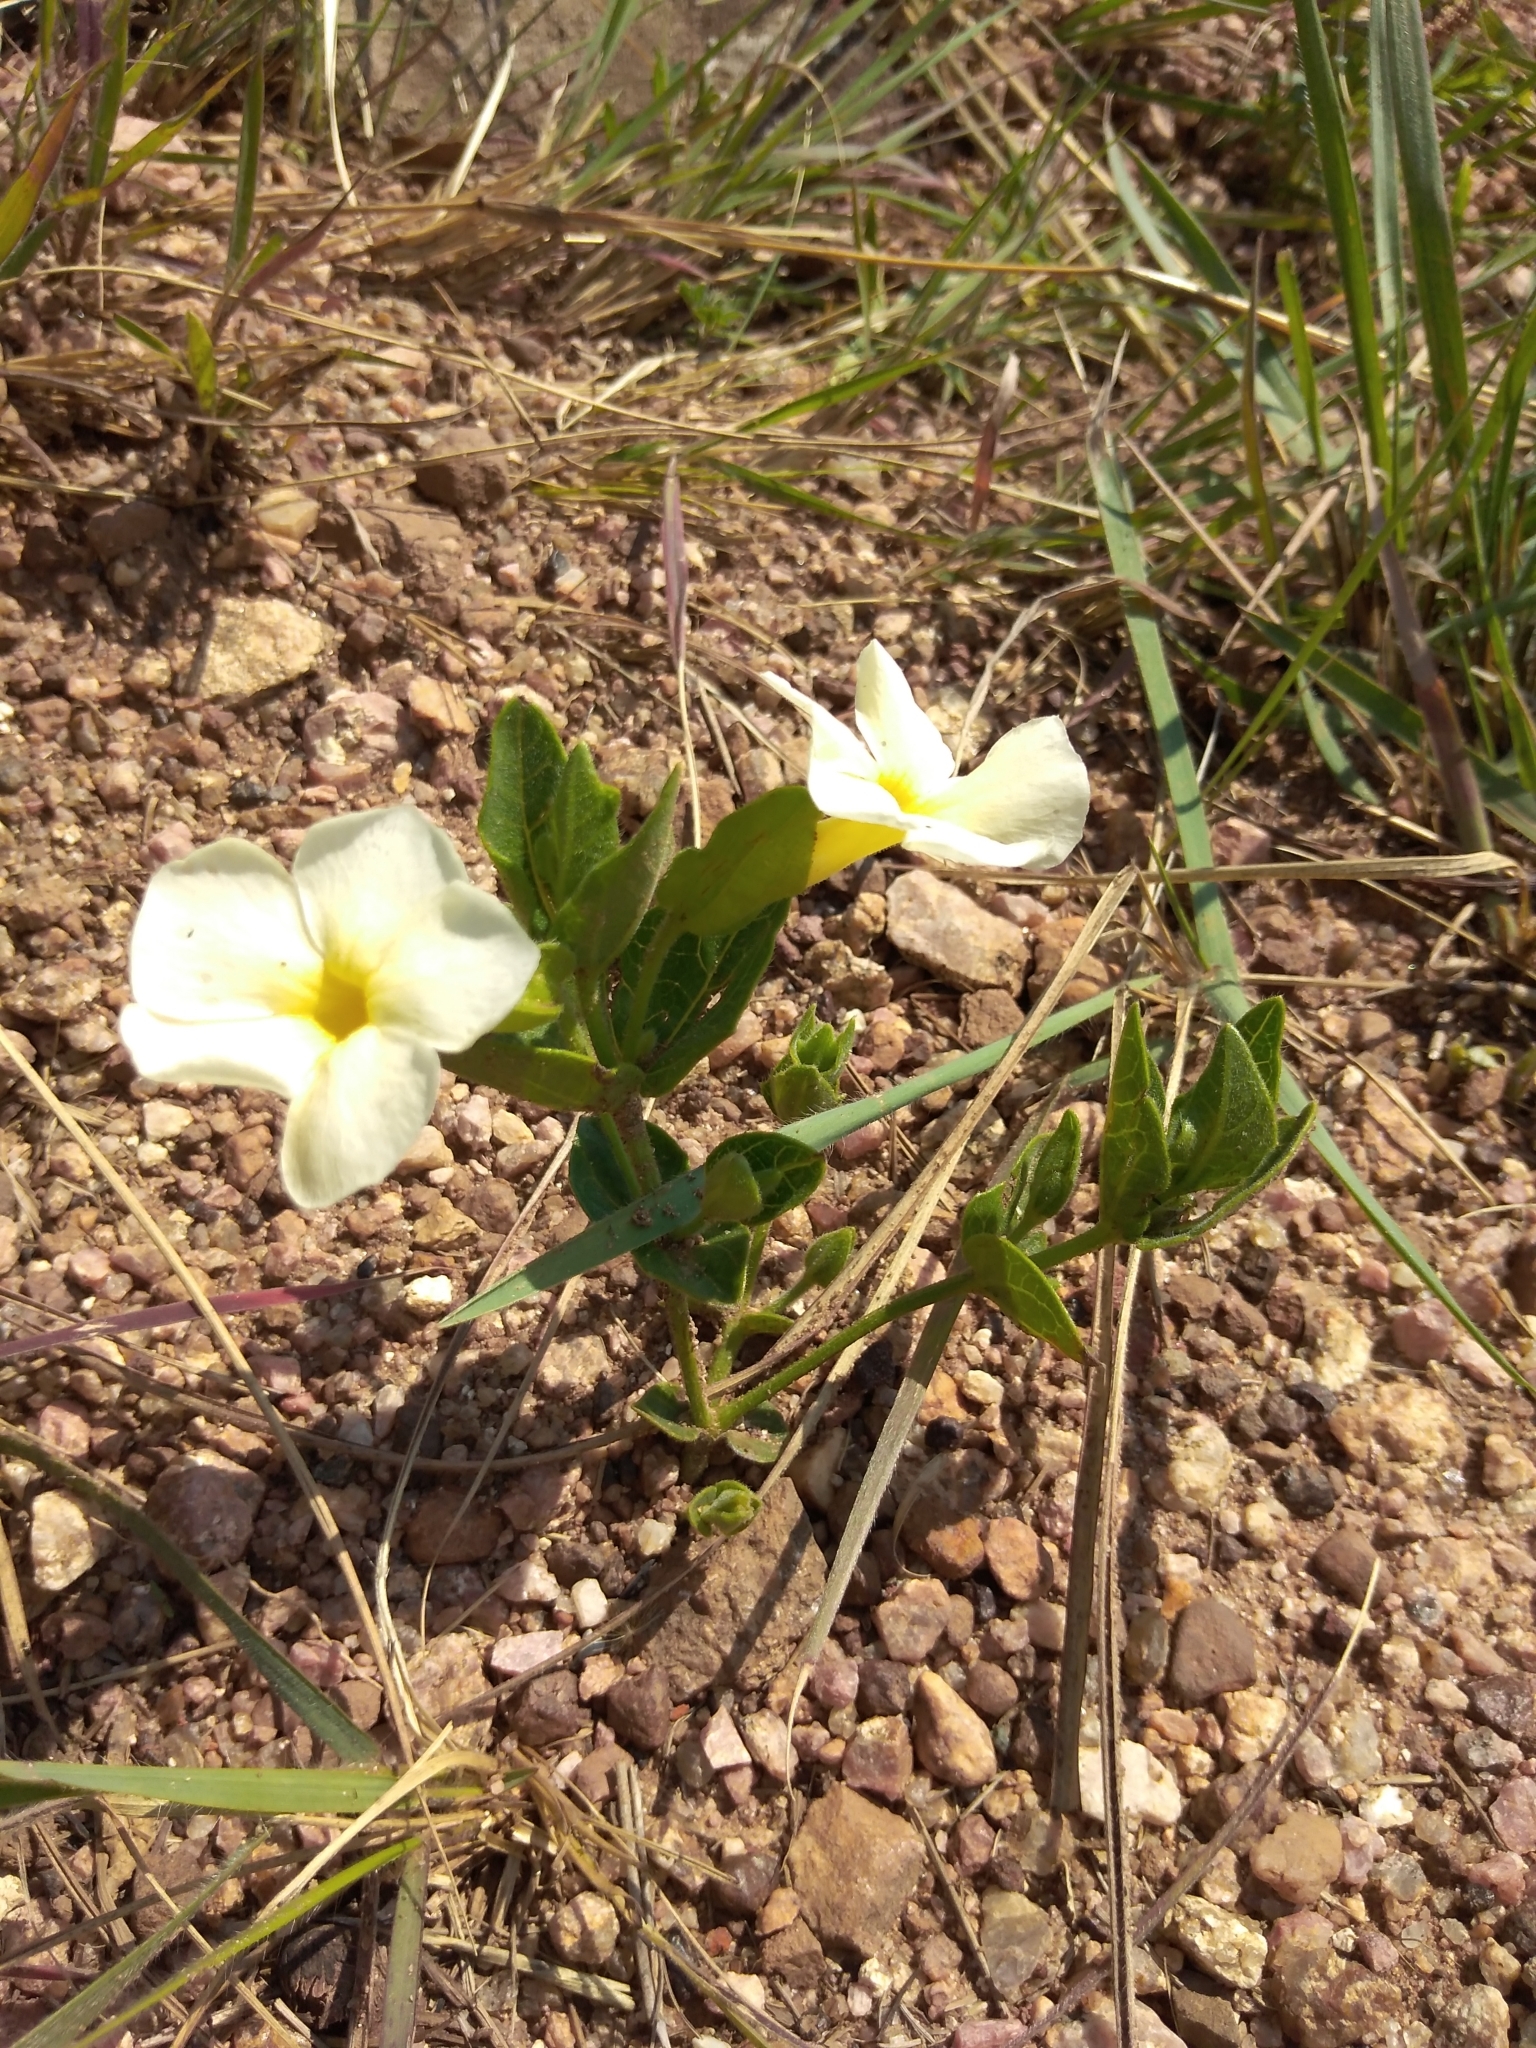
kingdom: Plantae
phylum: Tracheophyta
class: Magnoliopsida
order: Lamiales
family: Acanthaceae
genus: Thunbergia
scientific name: Thunbergia atriplicifolia
